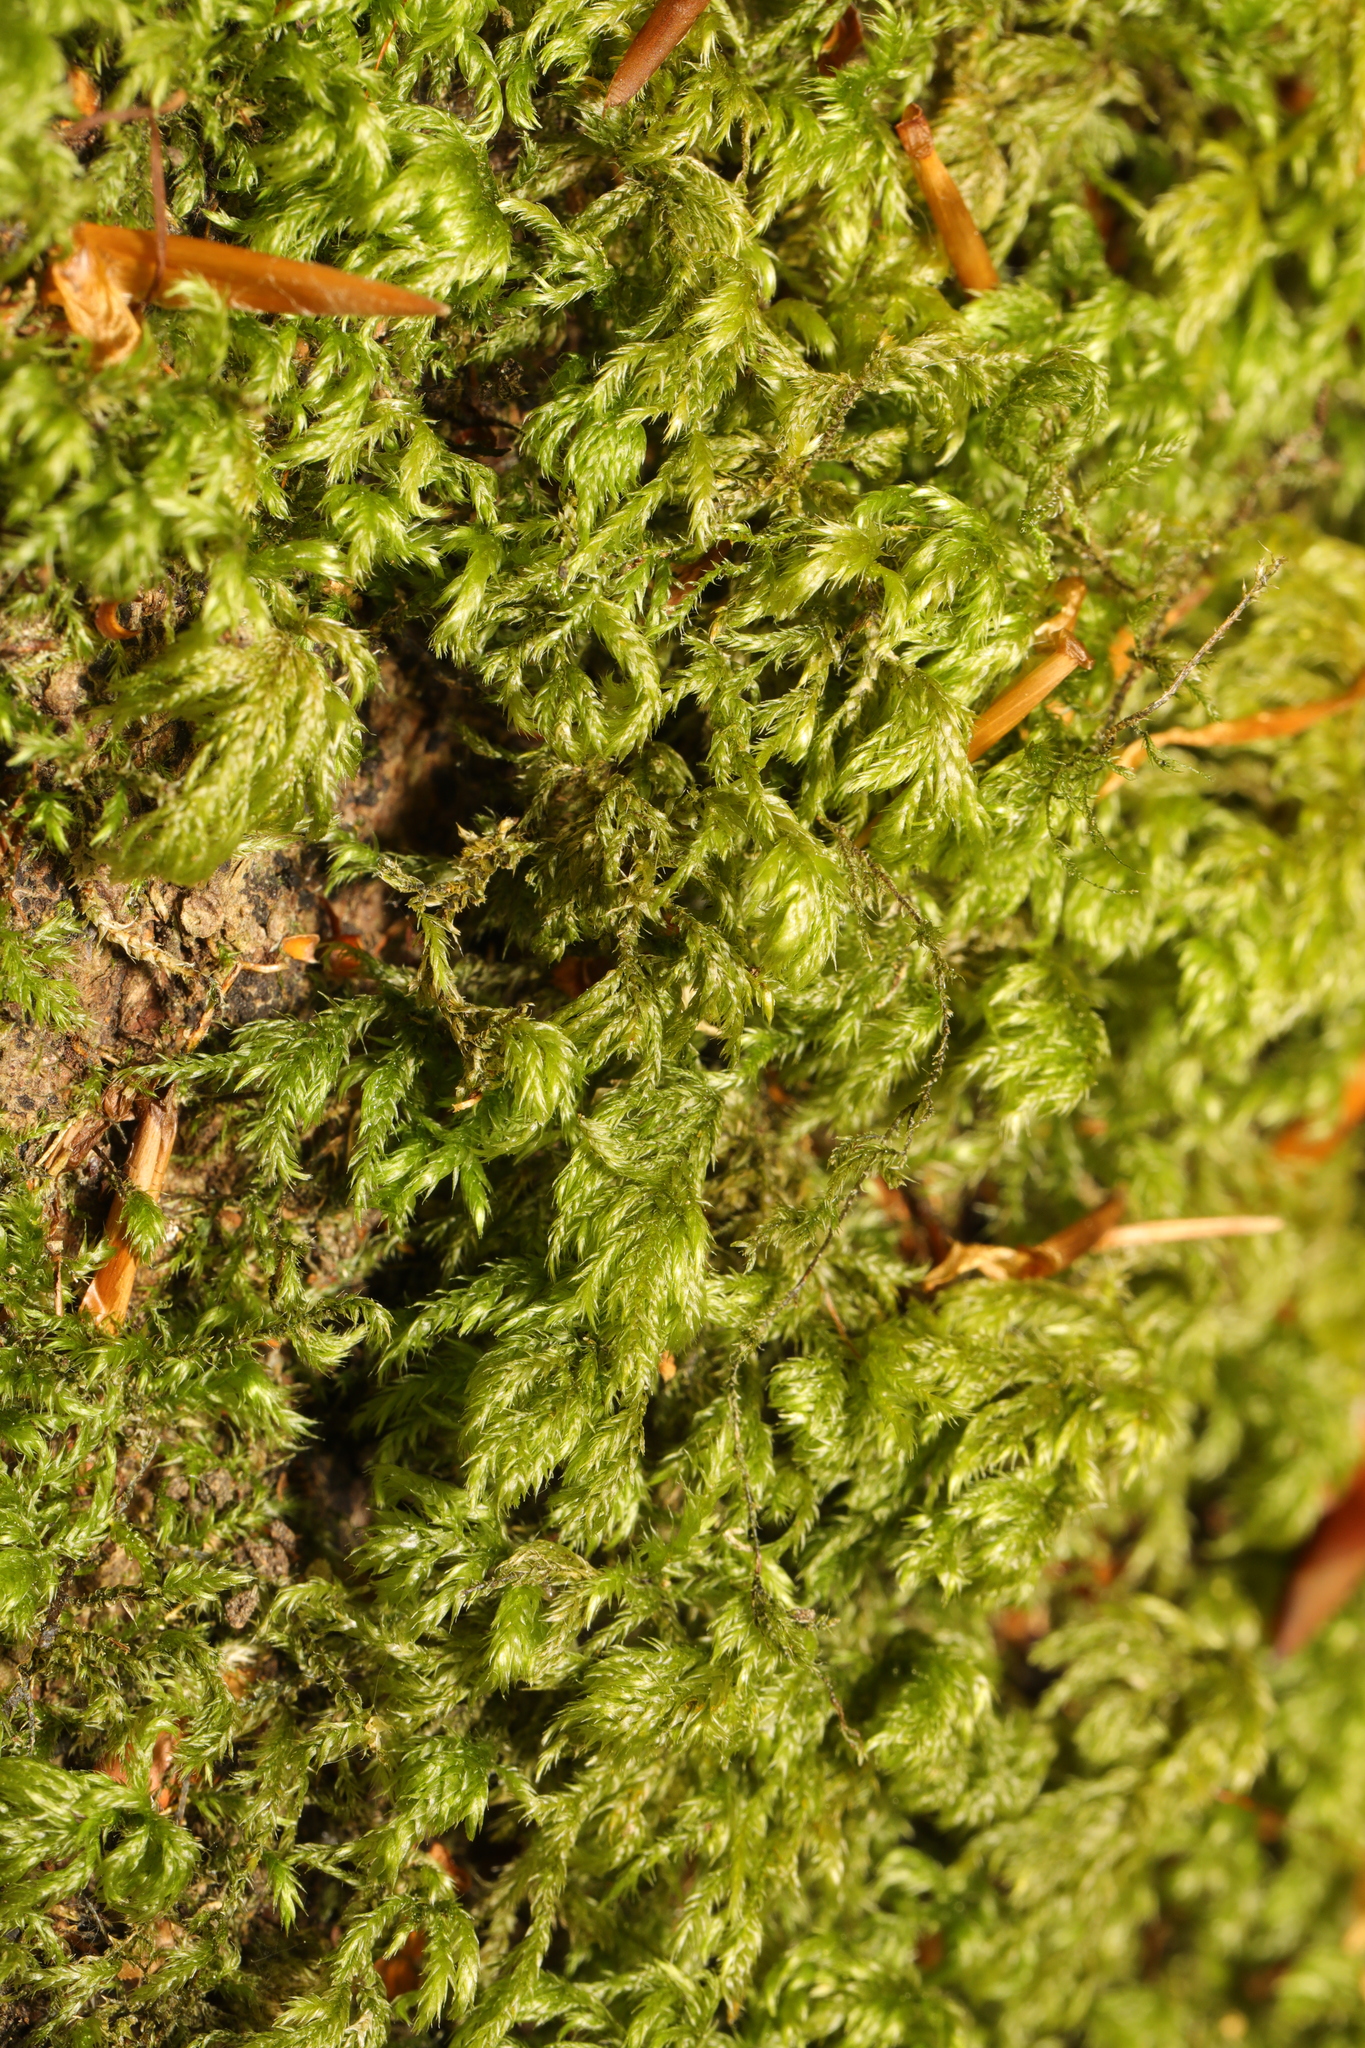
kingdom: Plantae
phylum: Bryophyta
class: Bryopsida
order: Hypnales
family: Lembophyllaceae
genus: Pseudisothecium
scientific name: Pseudisothecium myosuroides
